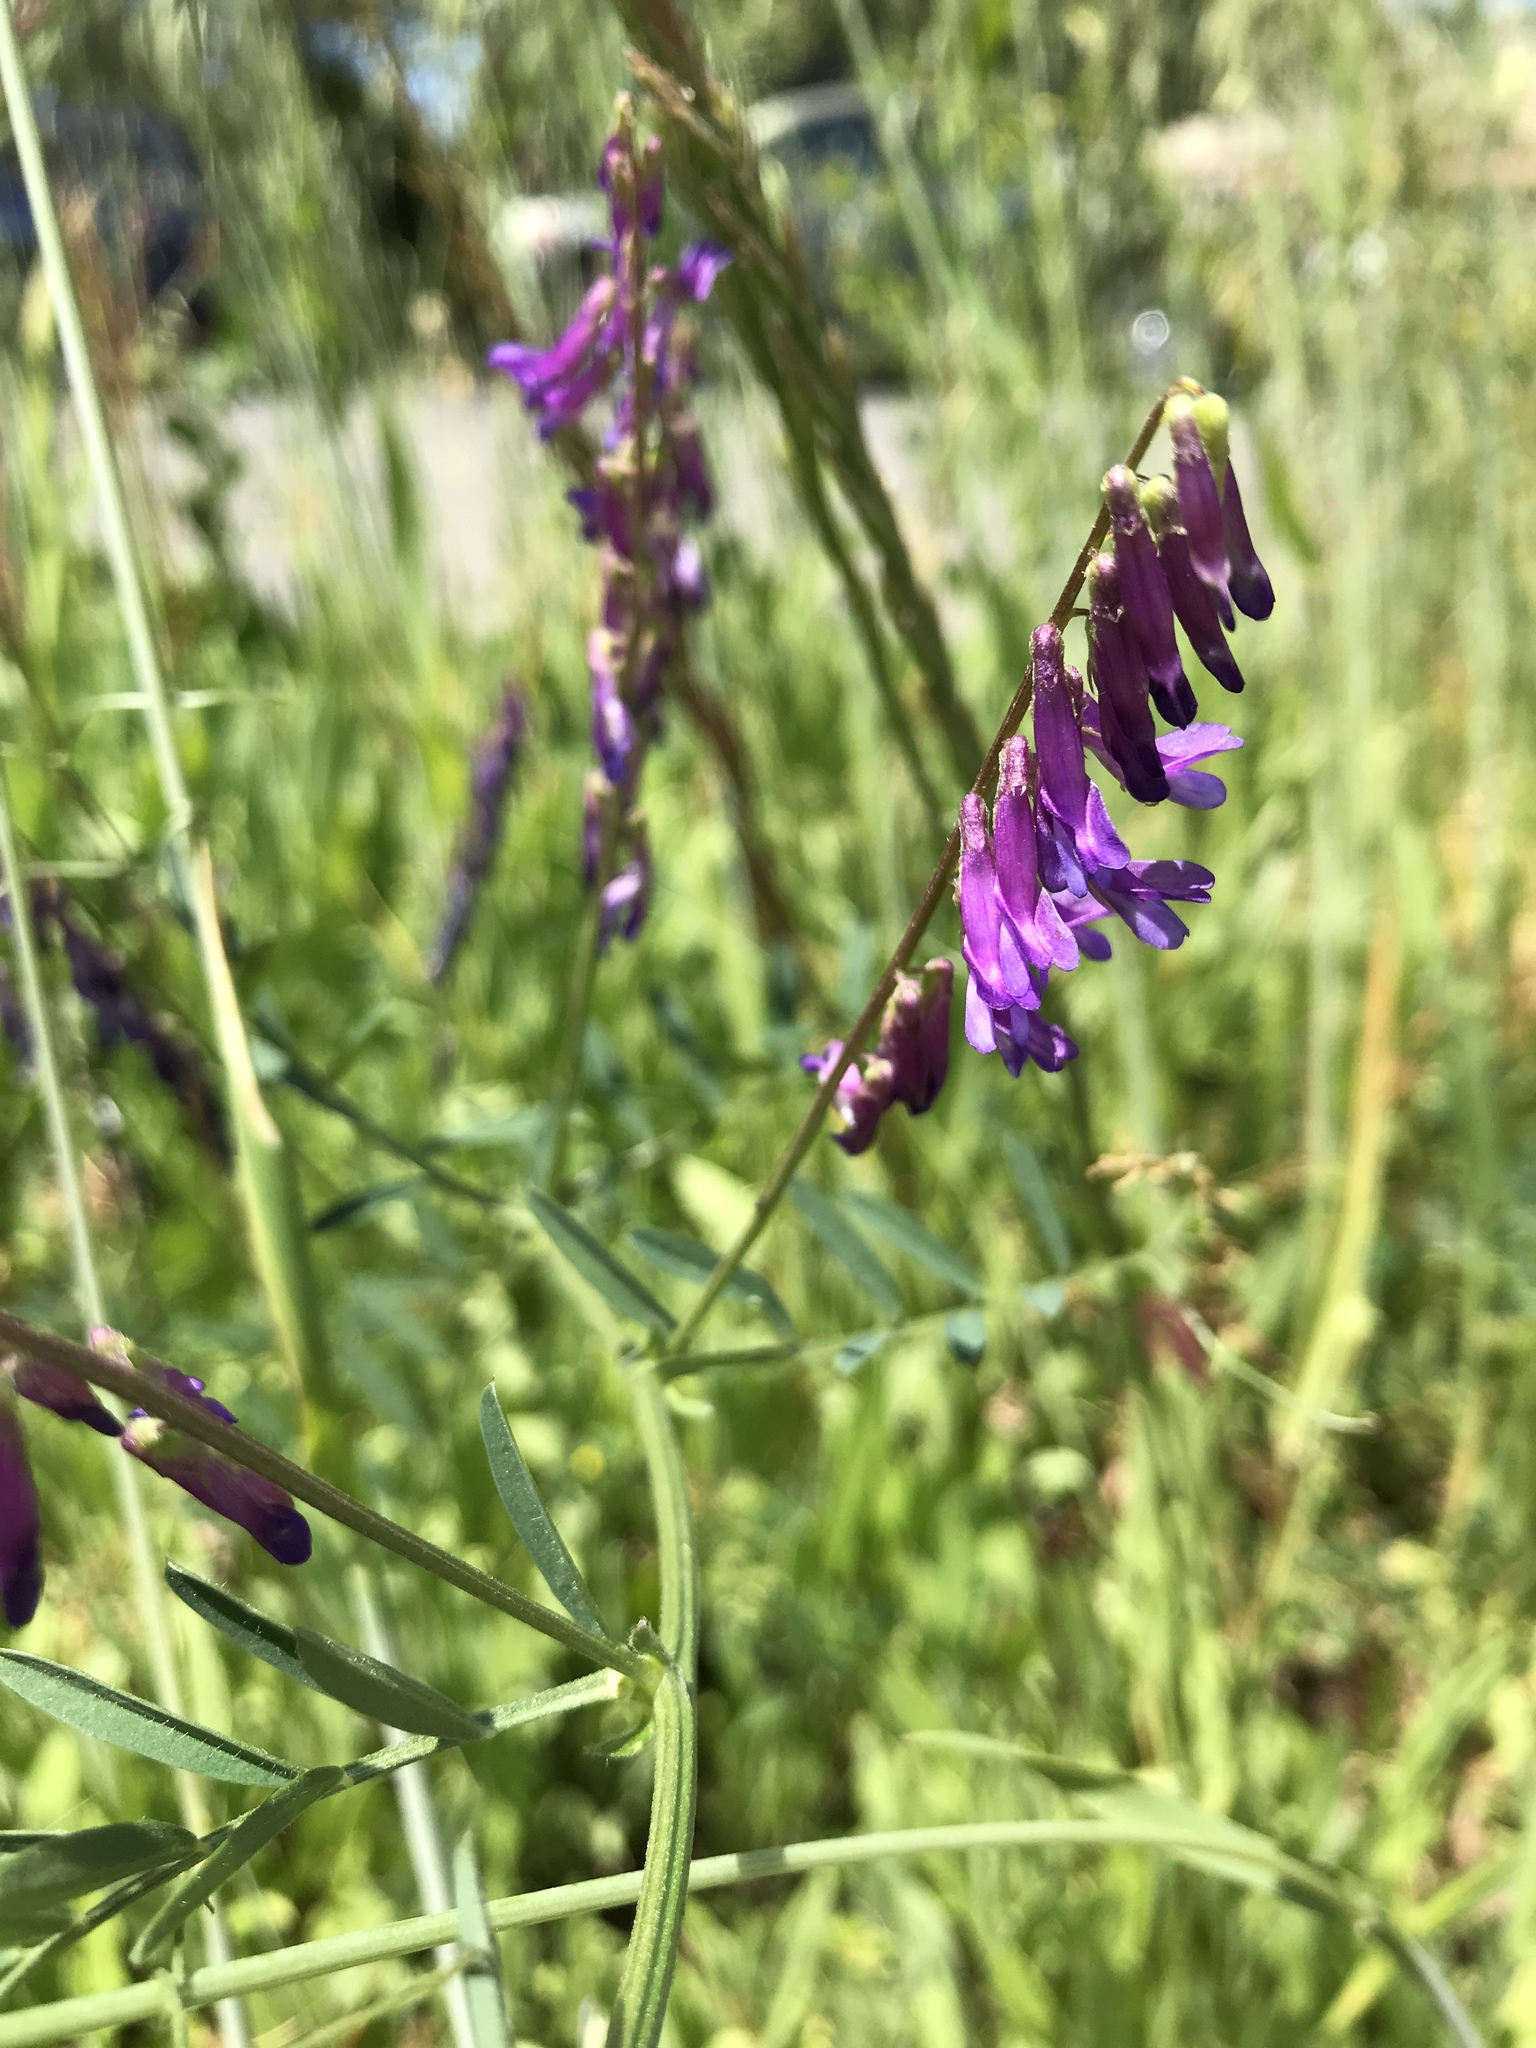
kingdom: Plantae
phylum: Tracheophyta
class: Magnoliopsida
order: Fabales
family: Fabaceae
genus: Vicia
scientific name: Vicia villosa
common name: Fodder vetch
